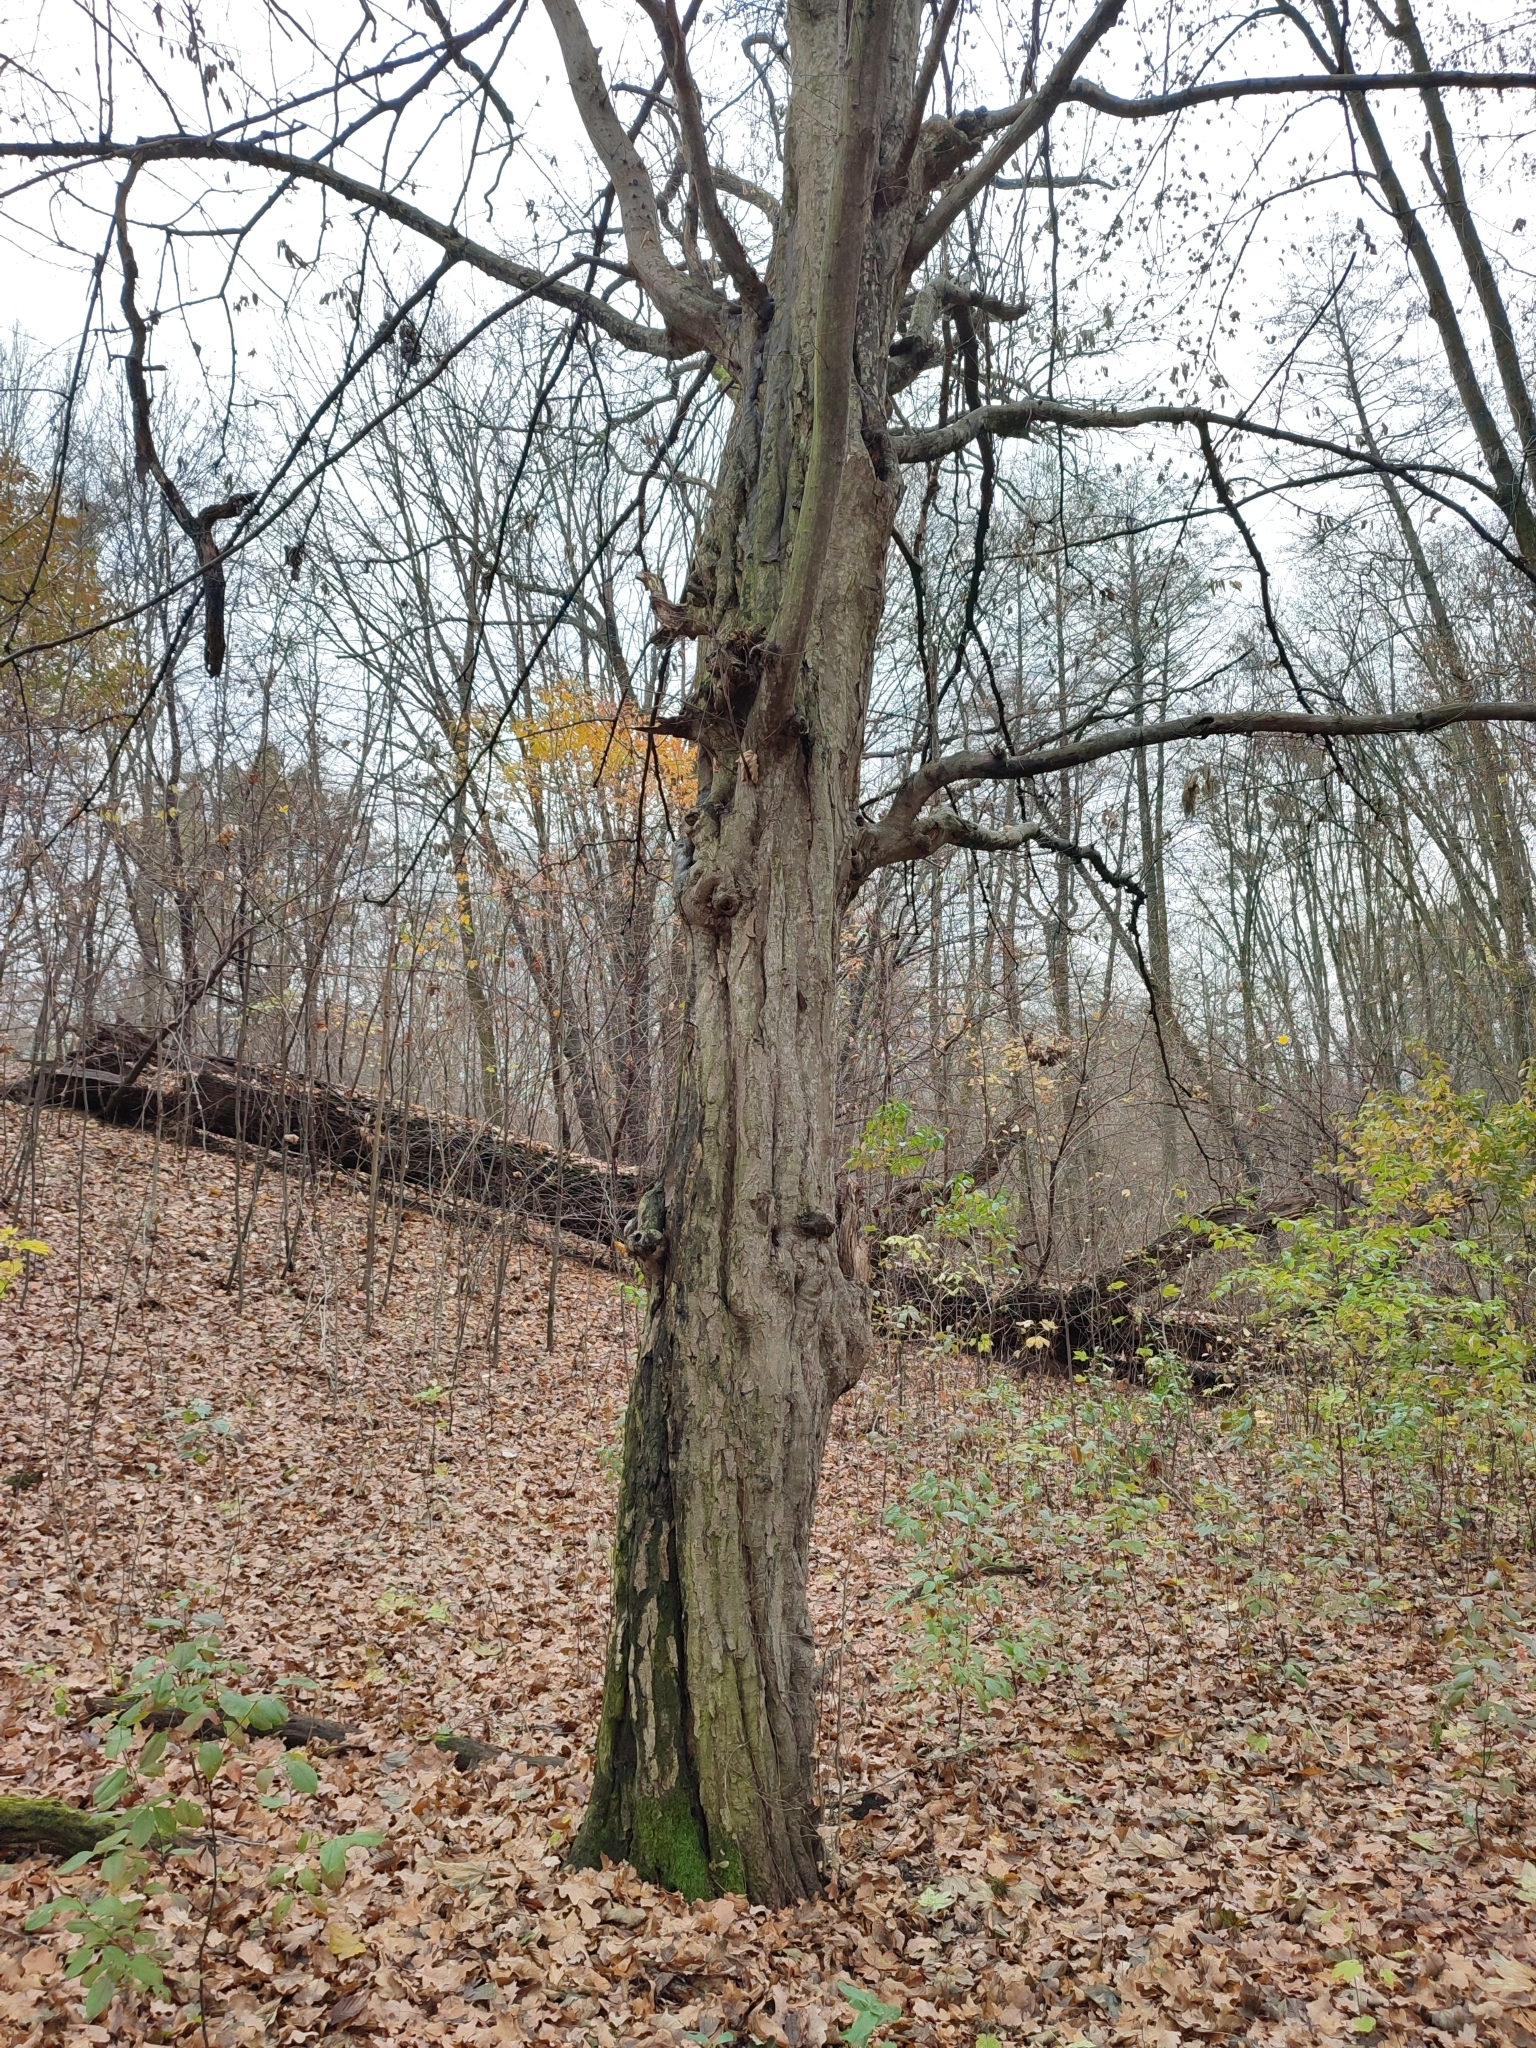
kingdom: Plantae
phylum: Tracheophyta
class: Magnoliopsida
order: Fagales
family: Betulaceae
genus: Carpinus
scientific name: Carpinus betulus
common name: Hornbeam
